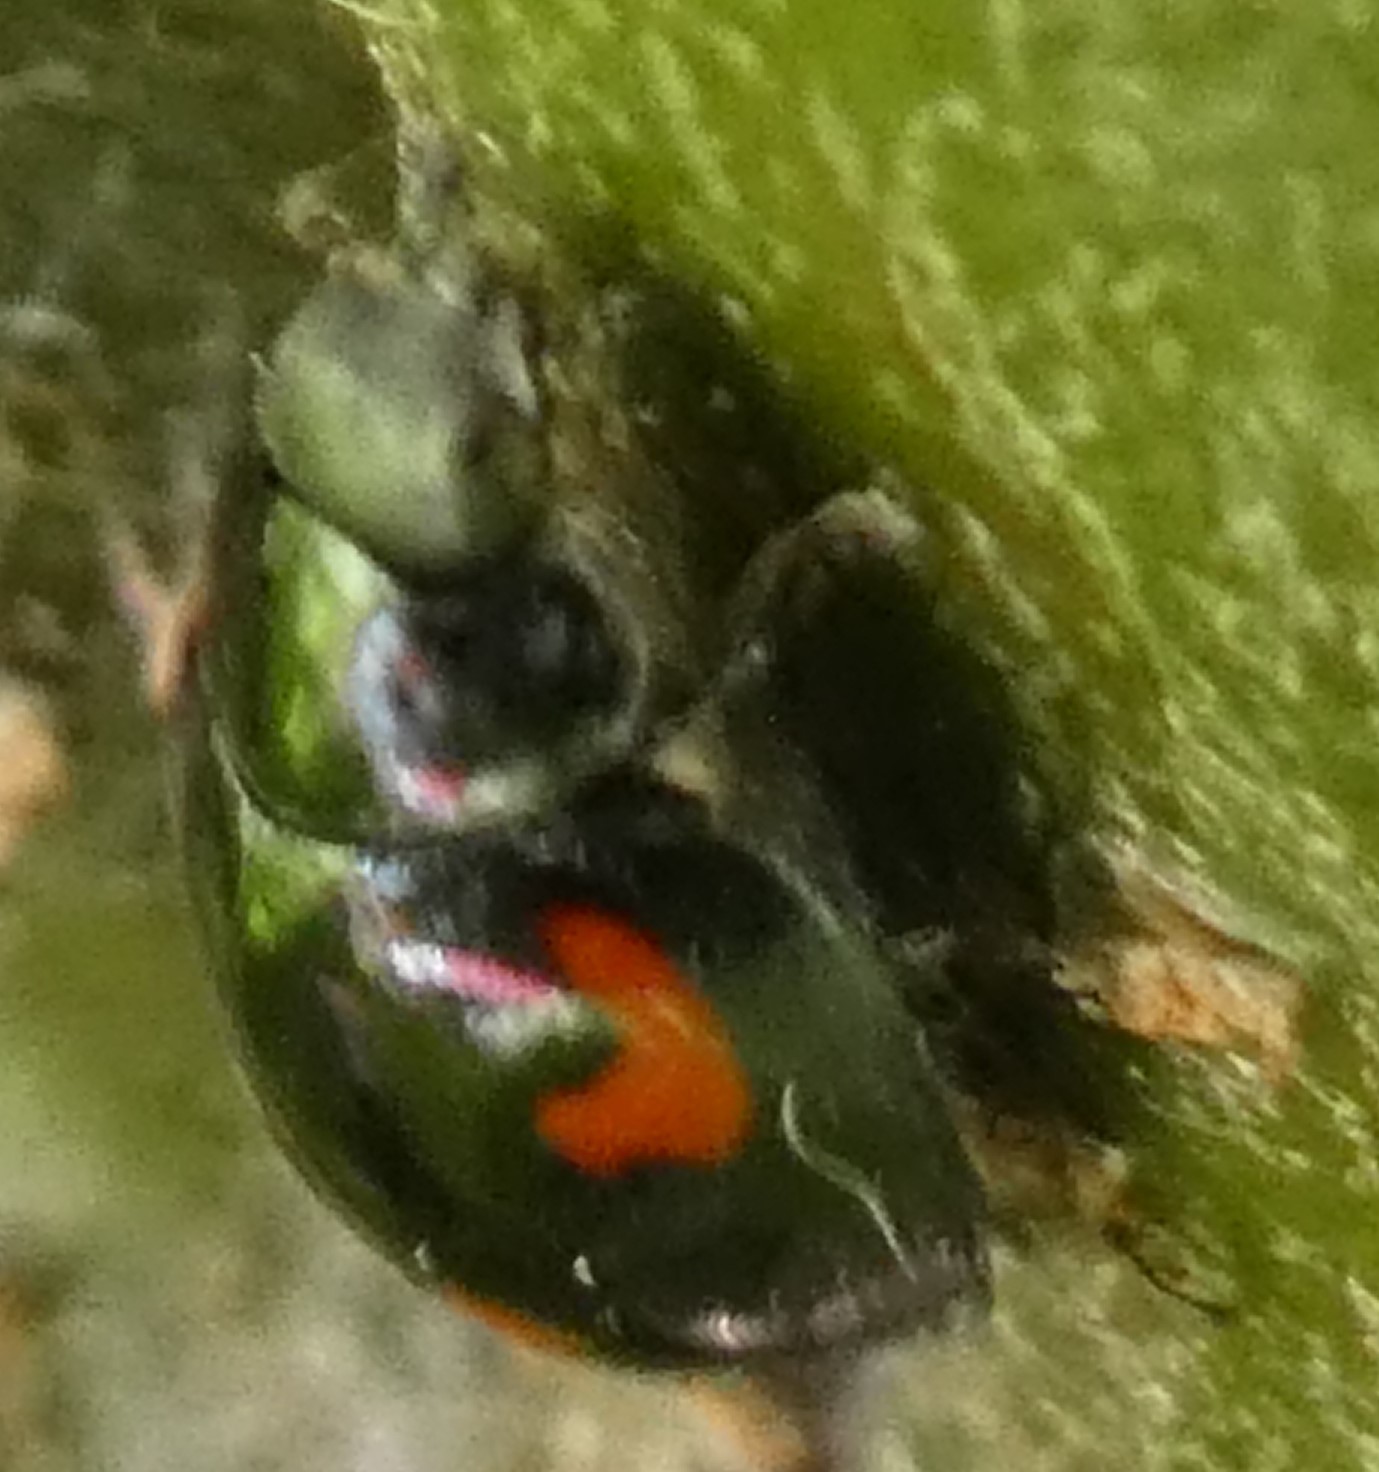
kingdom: Animalia
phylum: Arthropoda
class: Insecta
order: Coleoptera
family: Coccinellidae
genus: Brumus
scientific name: Brumus quadripustulatus
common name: Ladybird beetle
